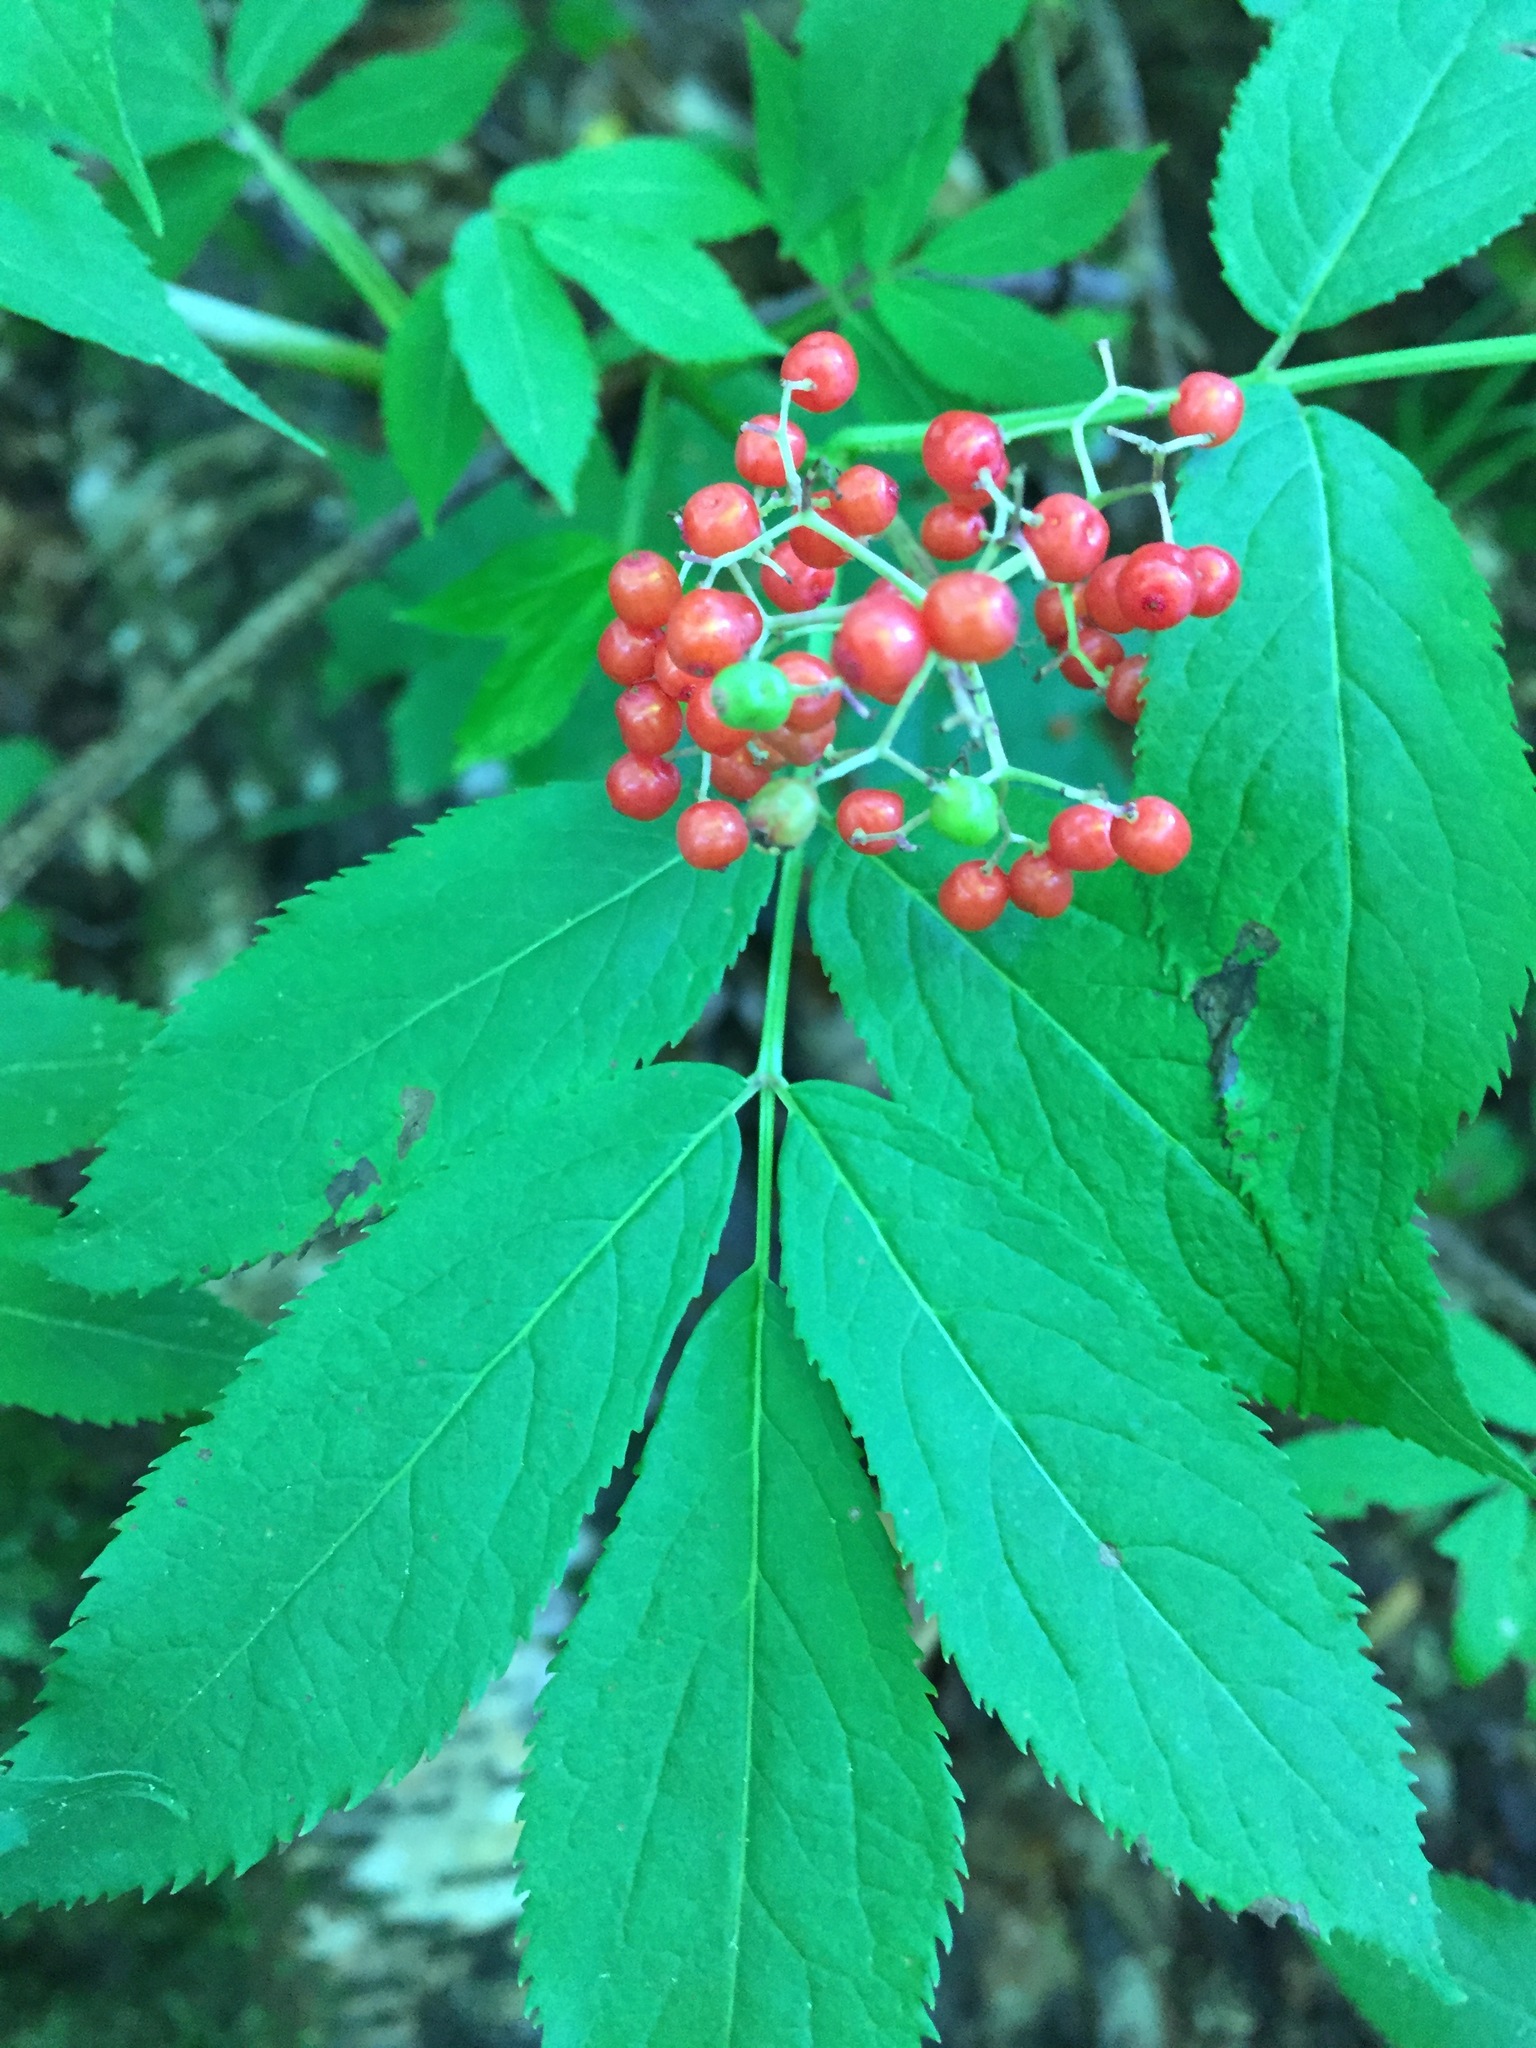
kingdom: Plantae
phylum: Tracheophyta
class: Magnoliopsida
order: Dipsacales
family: Viburnaceae
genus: Sambucus
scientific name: Sambucus racemosa
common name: Red-berried elder
